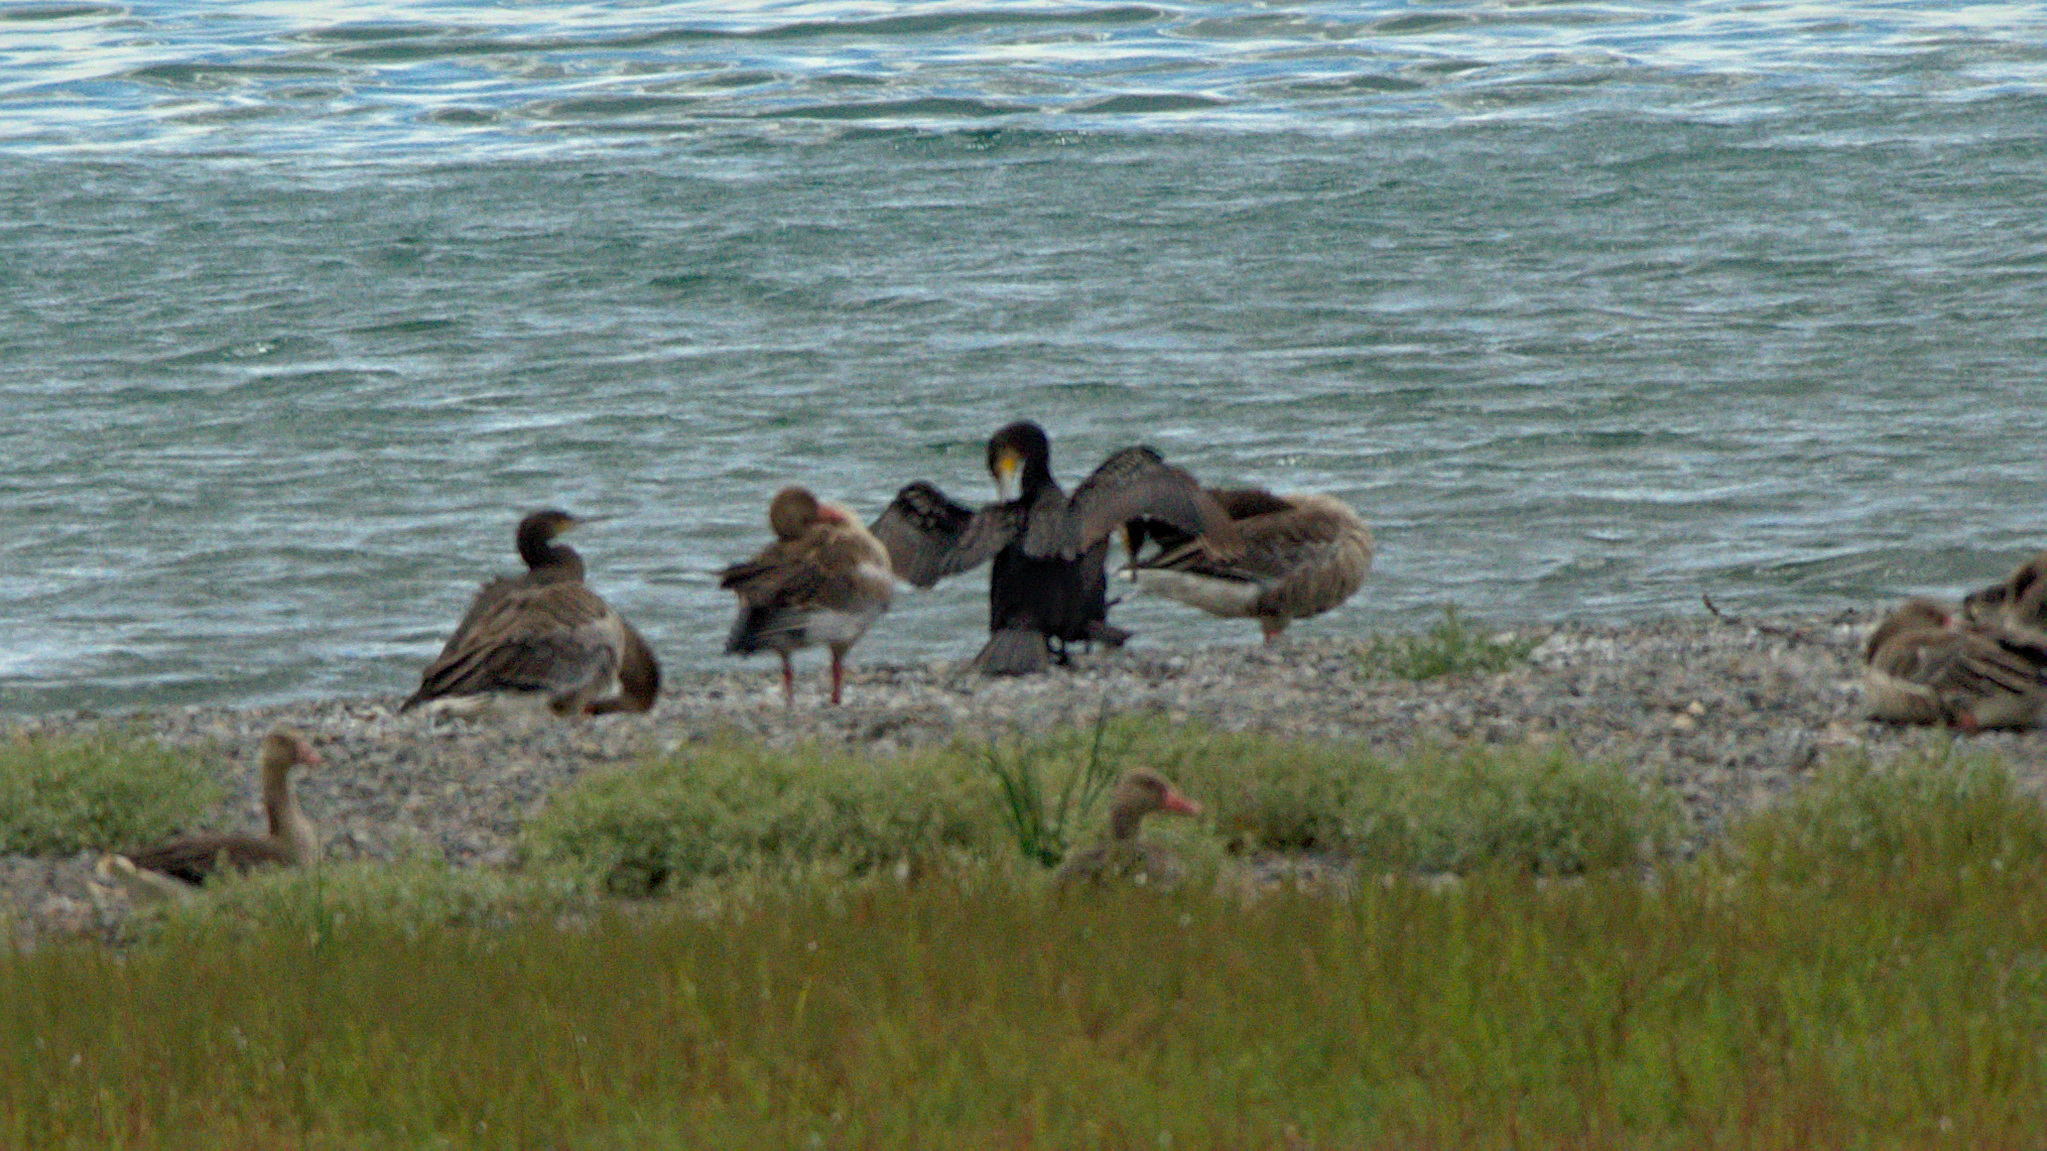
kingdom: Animalia
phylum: Chordata
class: Aves
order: Suliformes
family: Phalacrocoracidae
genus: Phalacrocorax
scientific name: Phalacrocorax carbo
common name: Great cormorant
